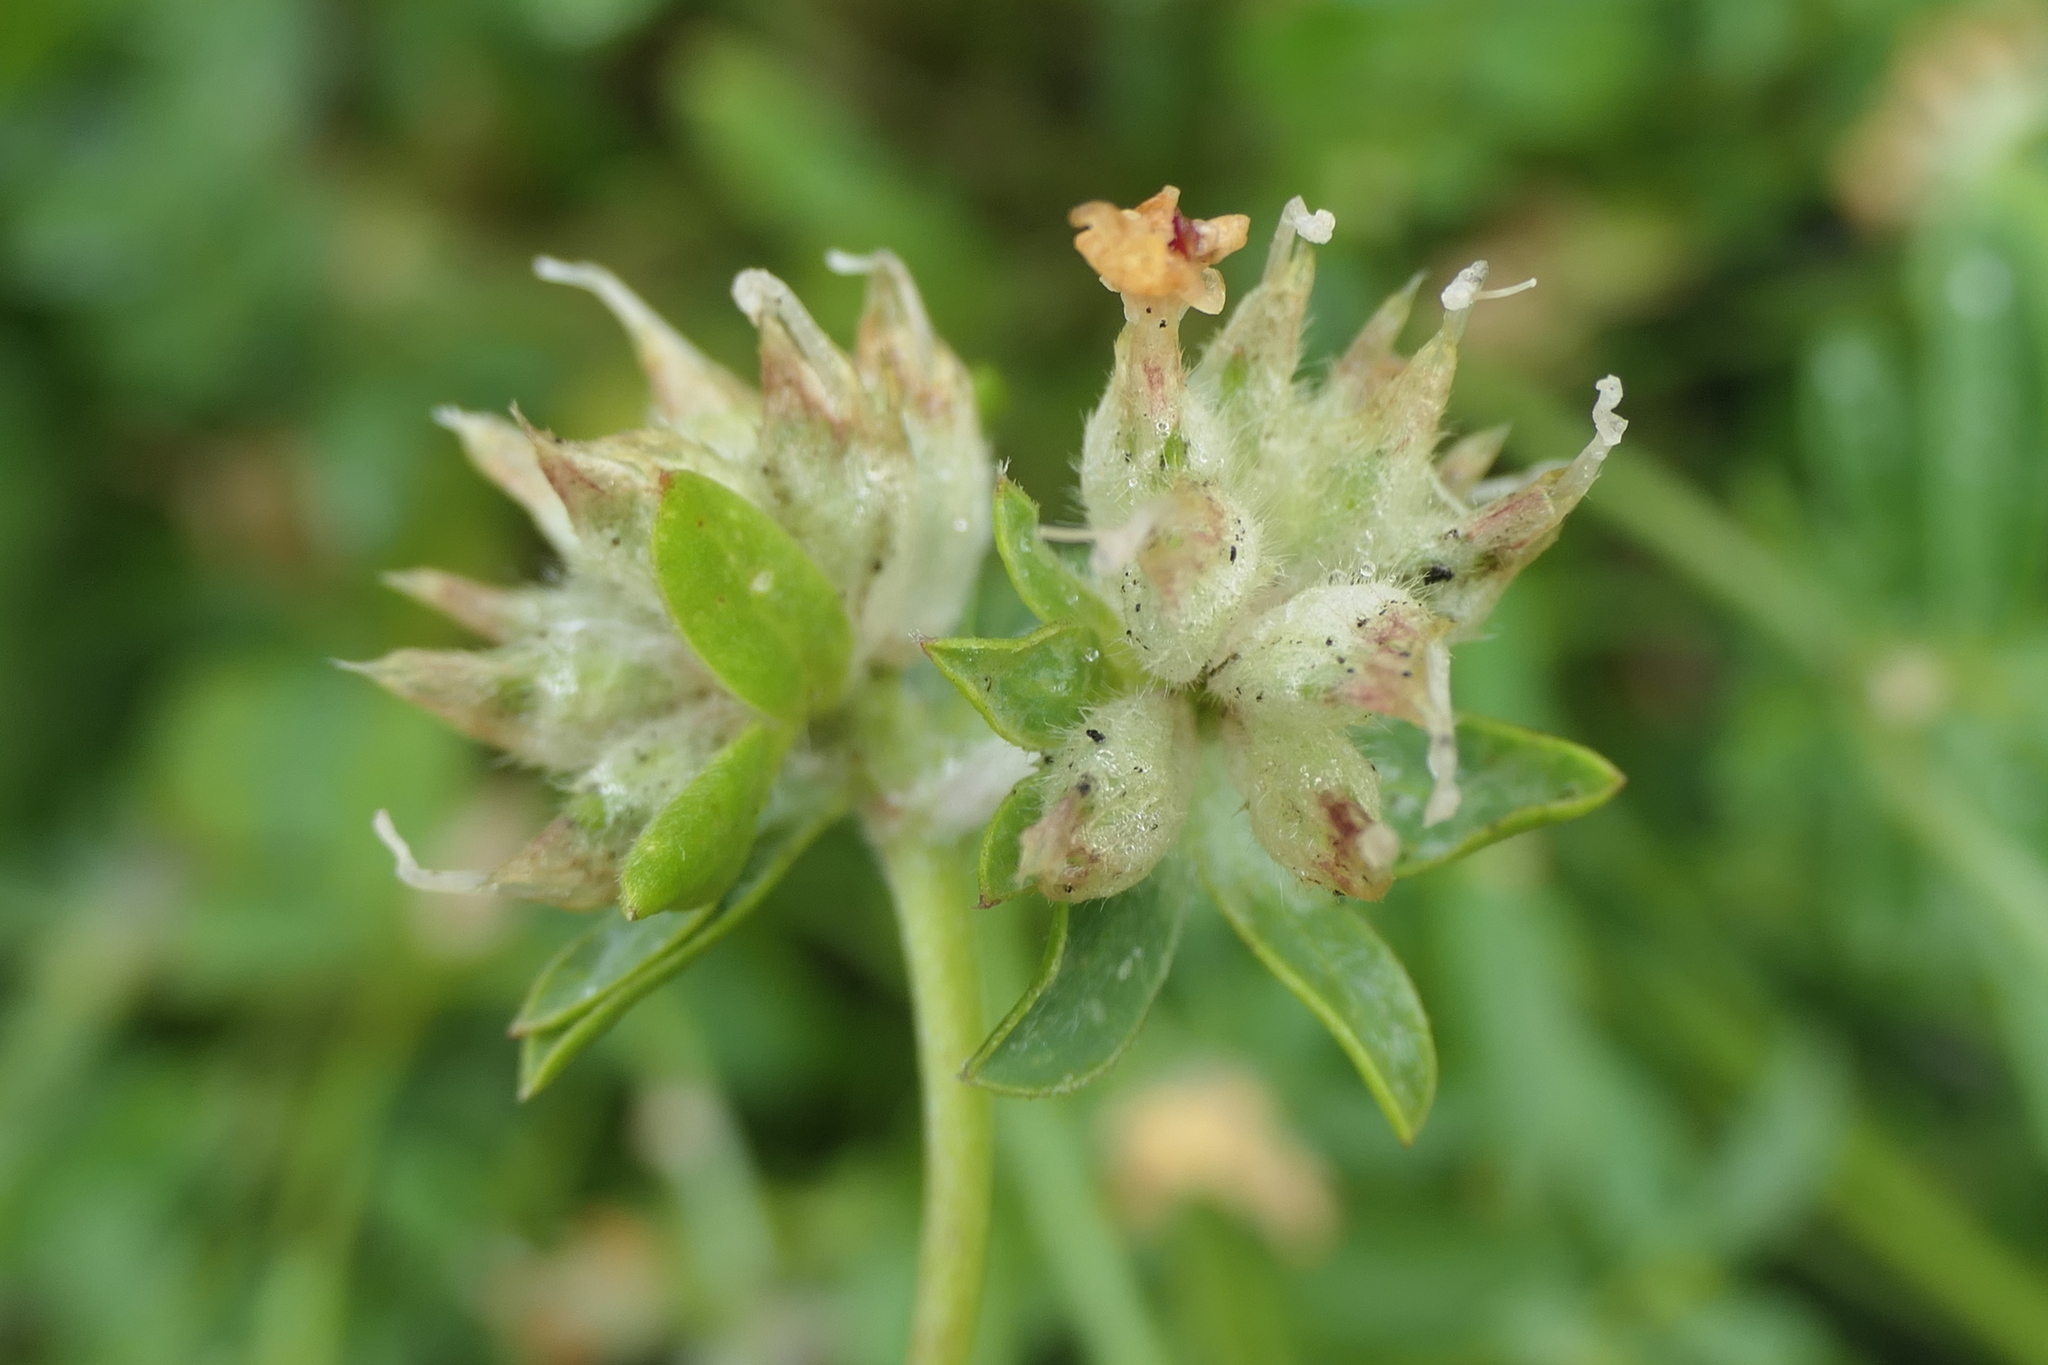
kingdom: Plantae
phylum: Tracheophyta
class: Magnoliopsida
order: Fabales
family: Fabaceae
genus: Anthyllis
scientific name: Anthyllis vulneraria
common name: Kidney vetch
